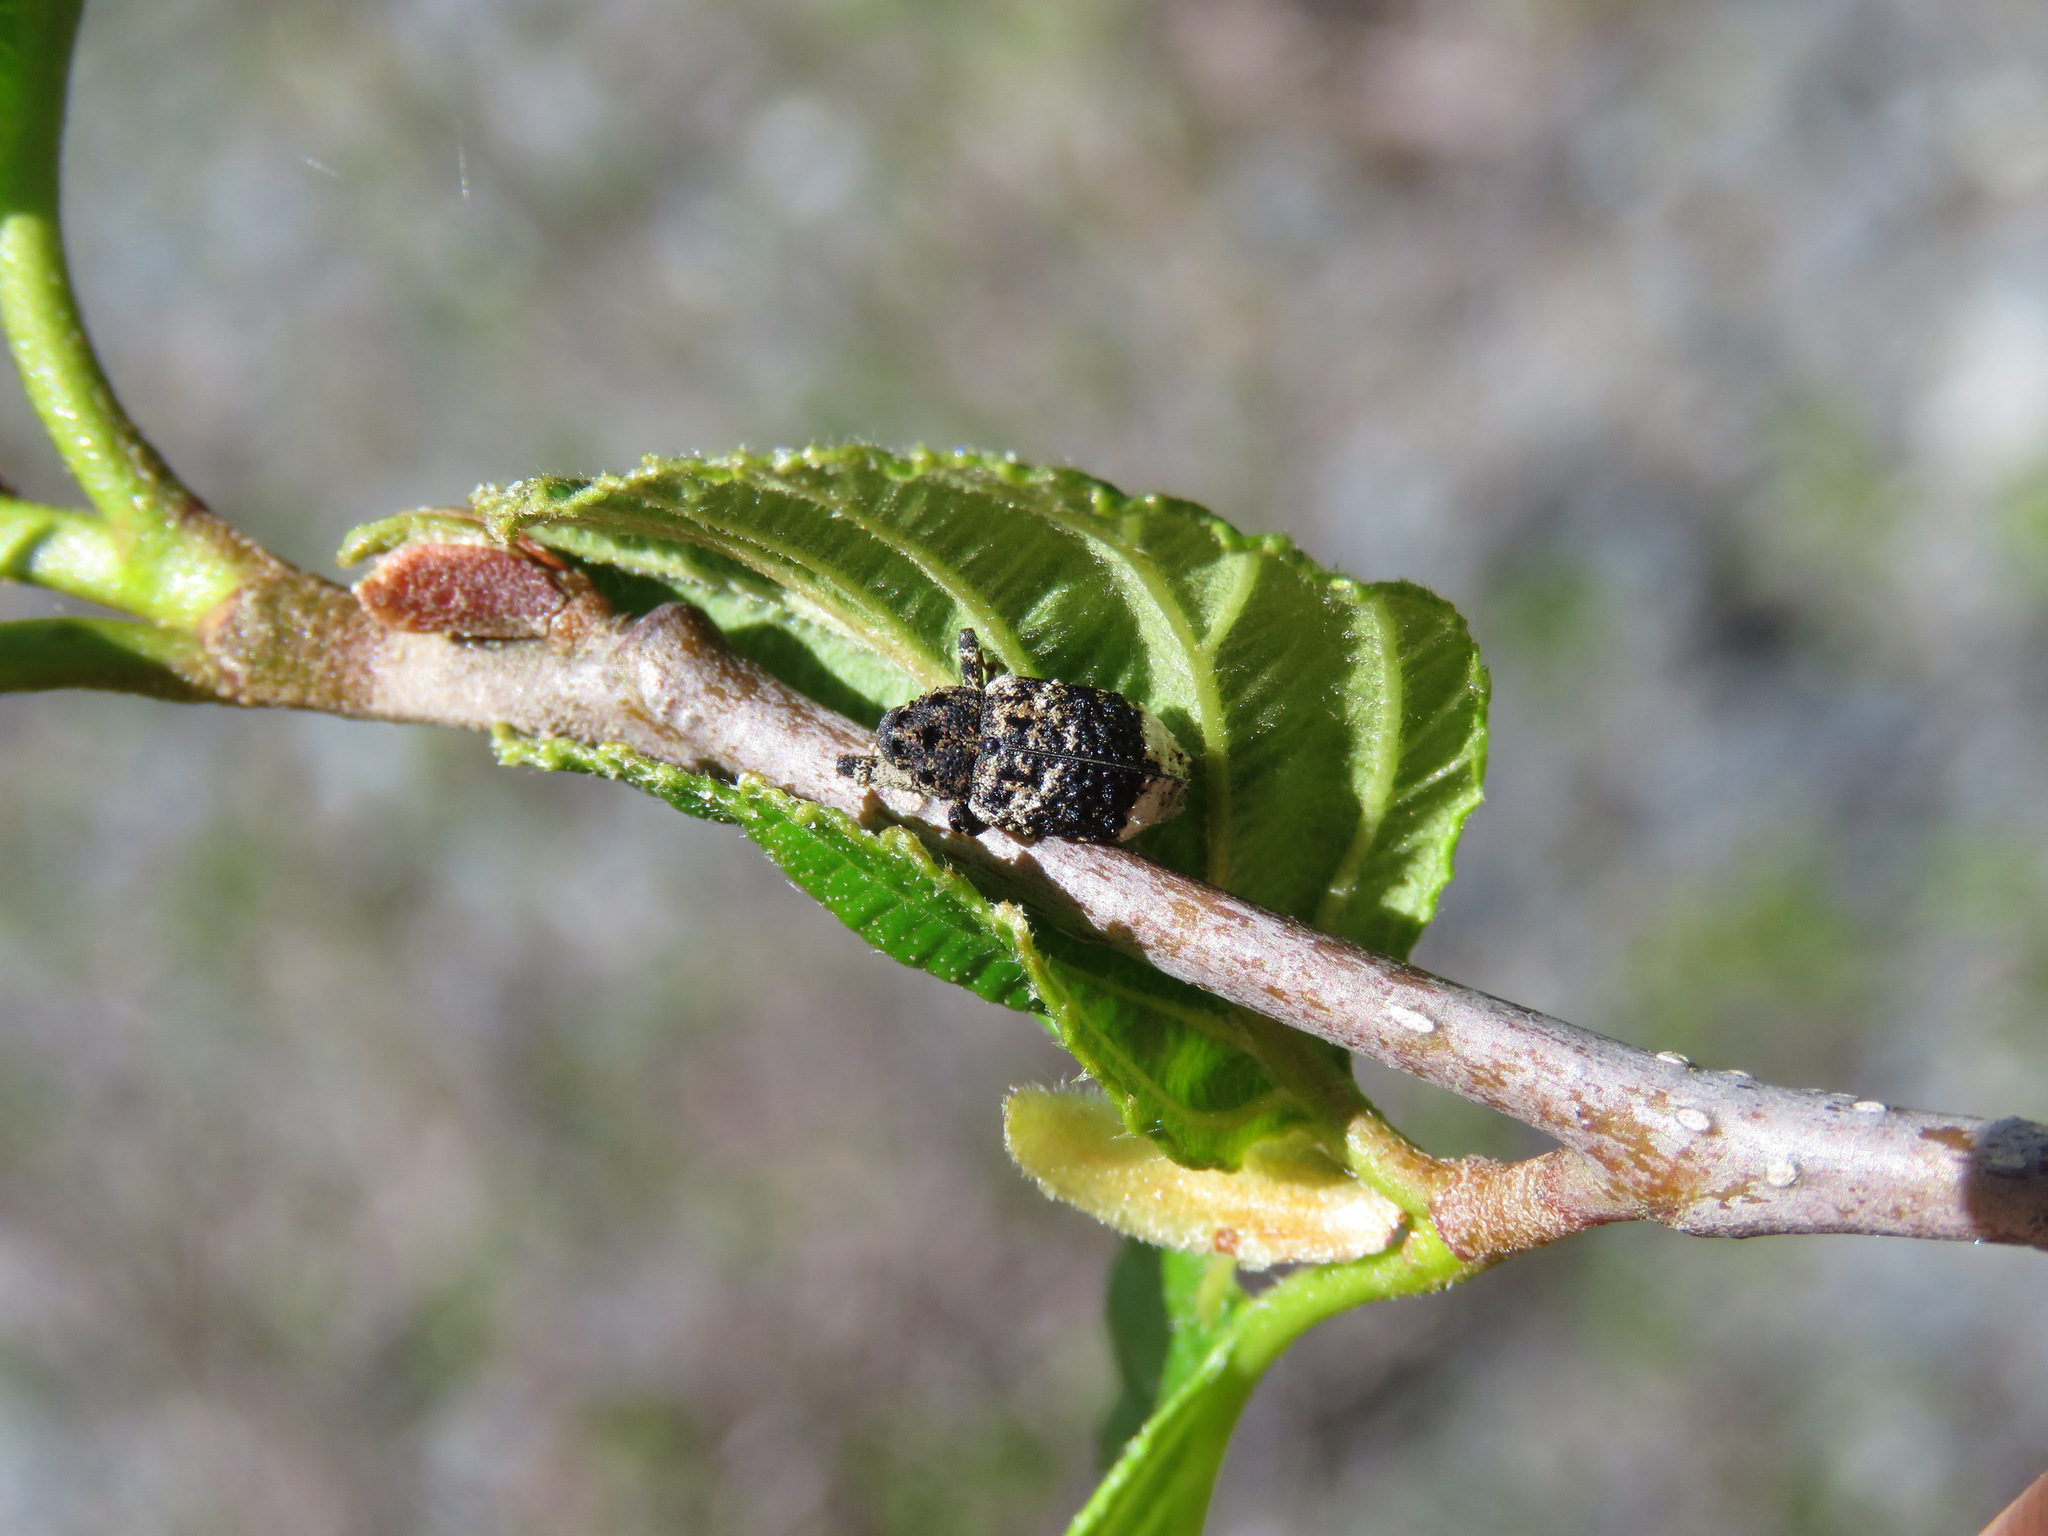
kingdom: Animalia
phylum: Arthropoda
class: Insecta
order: Coleoptera
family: Curculionidae
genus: Cryptorhynchus
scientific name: Cryptorhynchus lapathi
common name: Weevil
